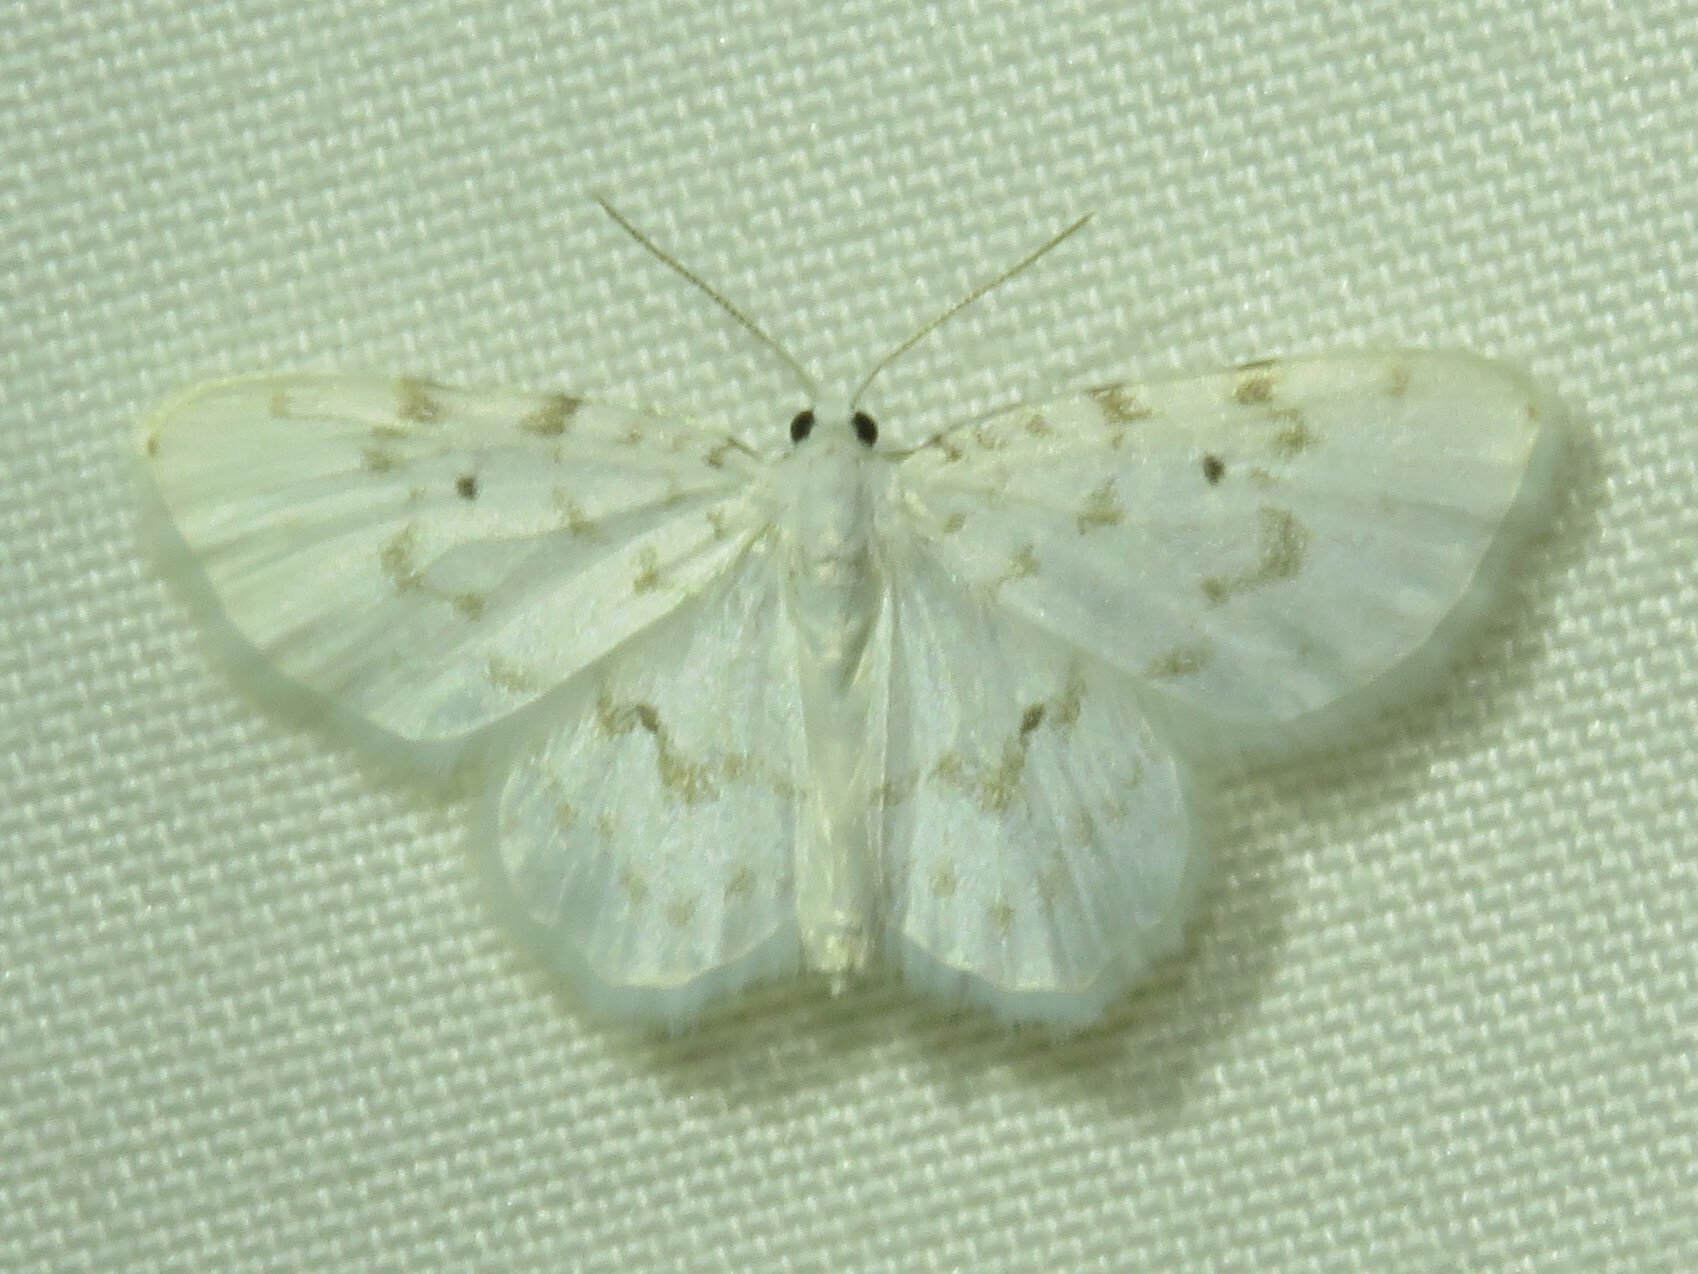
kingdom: Animalia
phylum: Arthropoda
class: Insecta
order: Lepidoptera
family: Geometridae
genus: Hydrelia
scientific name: Hydrelia albifera
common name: Fragile white carpet
